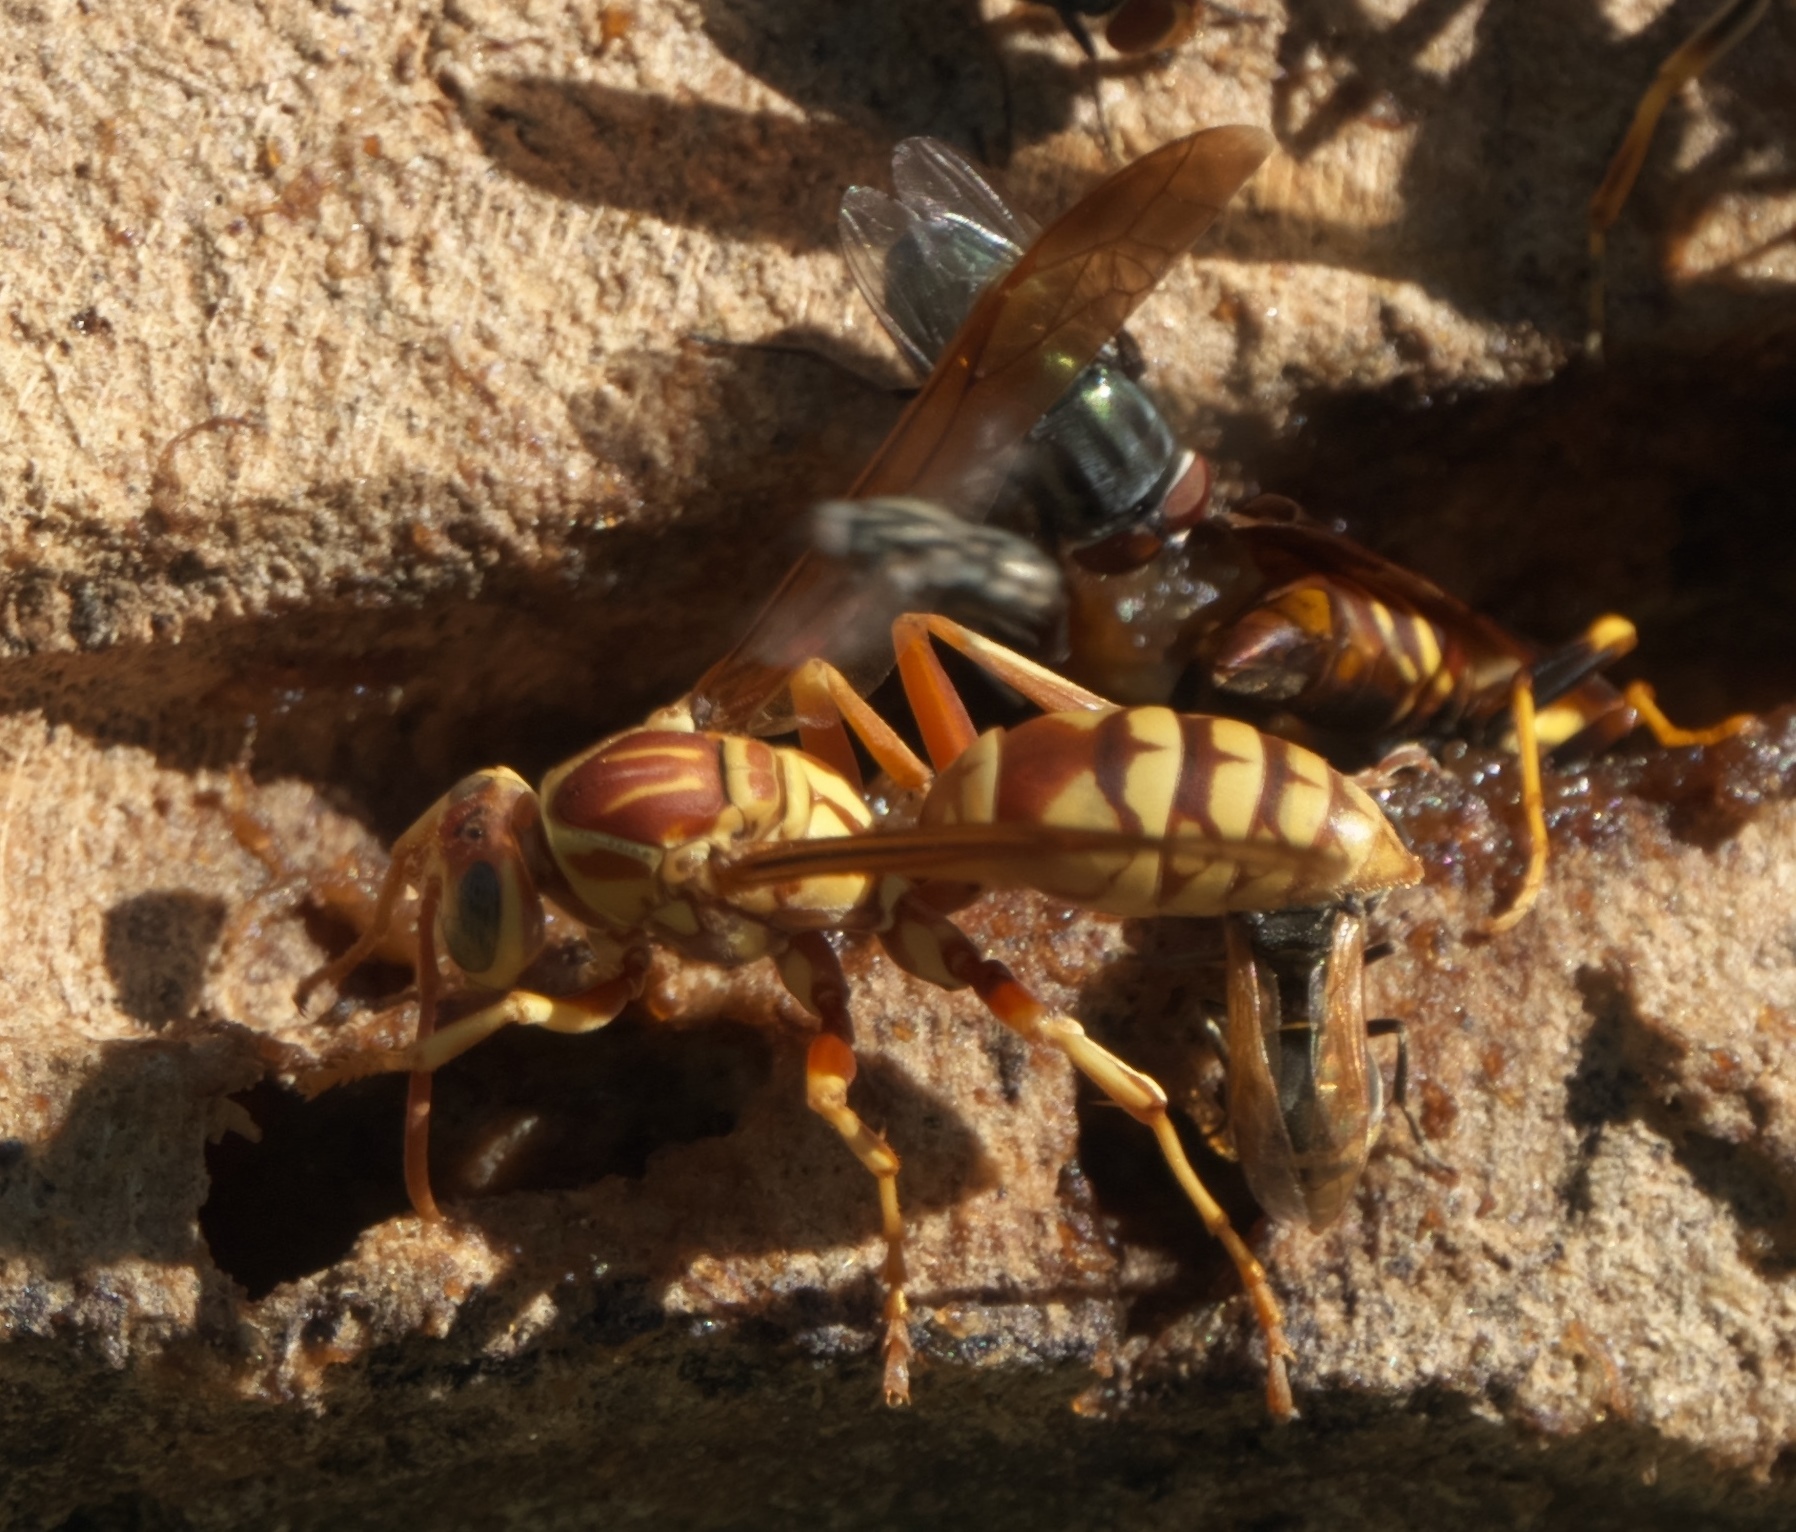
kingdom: Animalia
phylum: Arthropoda
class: Insecta
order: Hymenoptera
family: Eumenidae
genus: Polistes
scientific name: Polistes apachus
